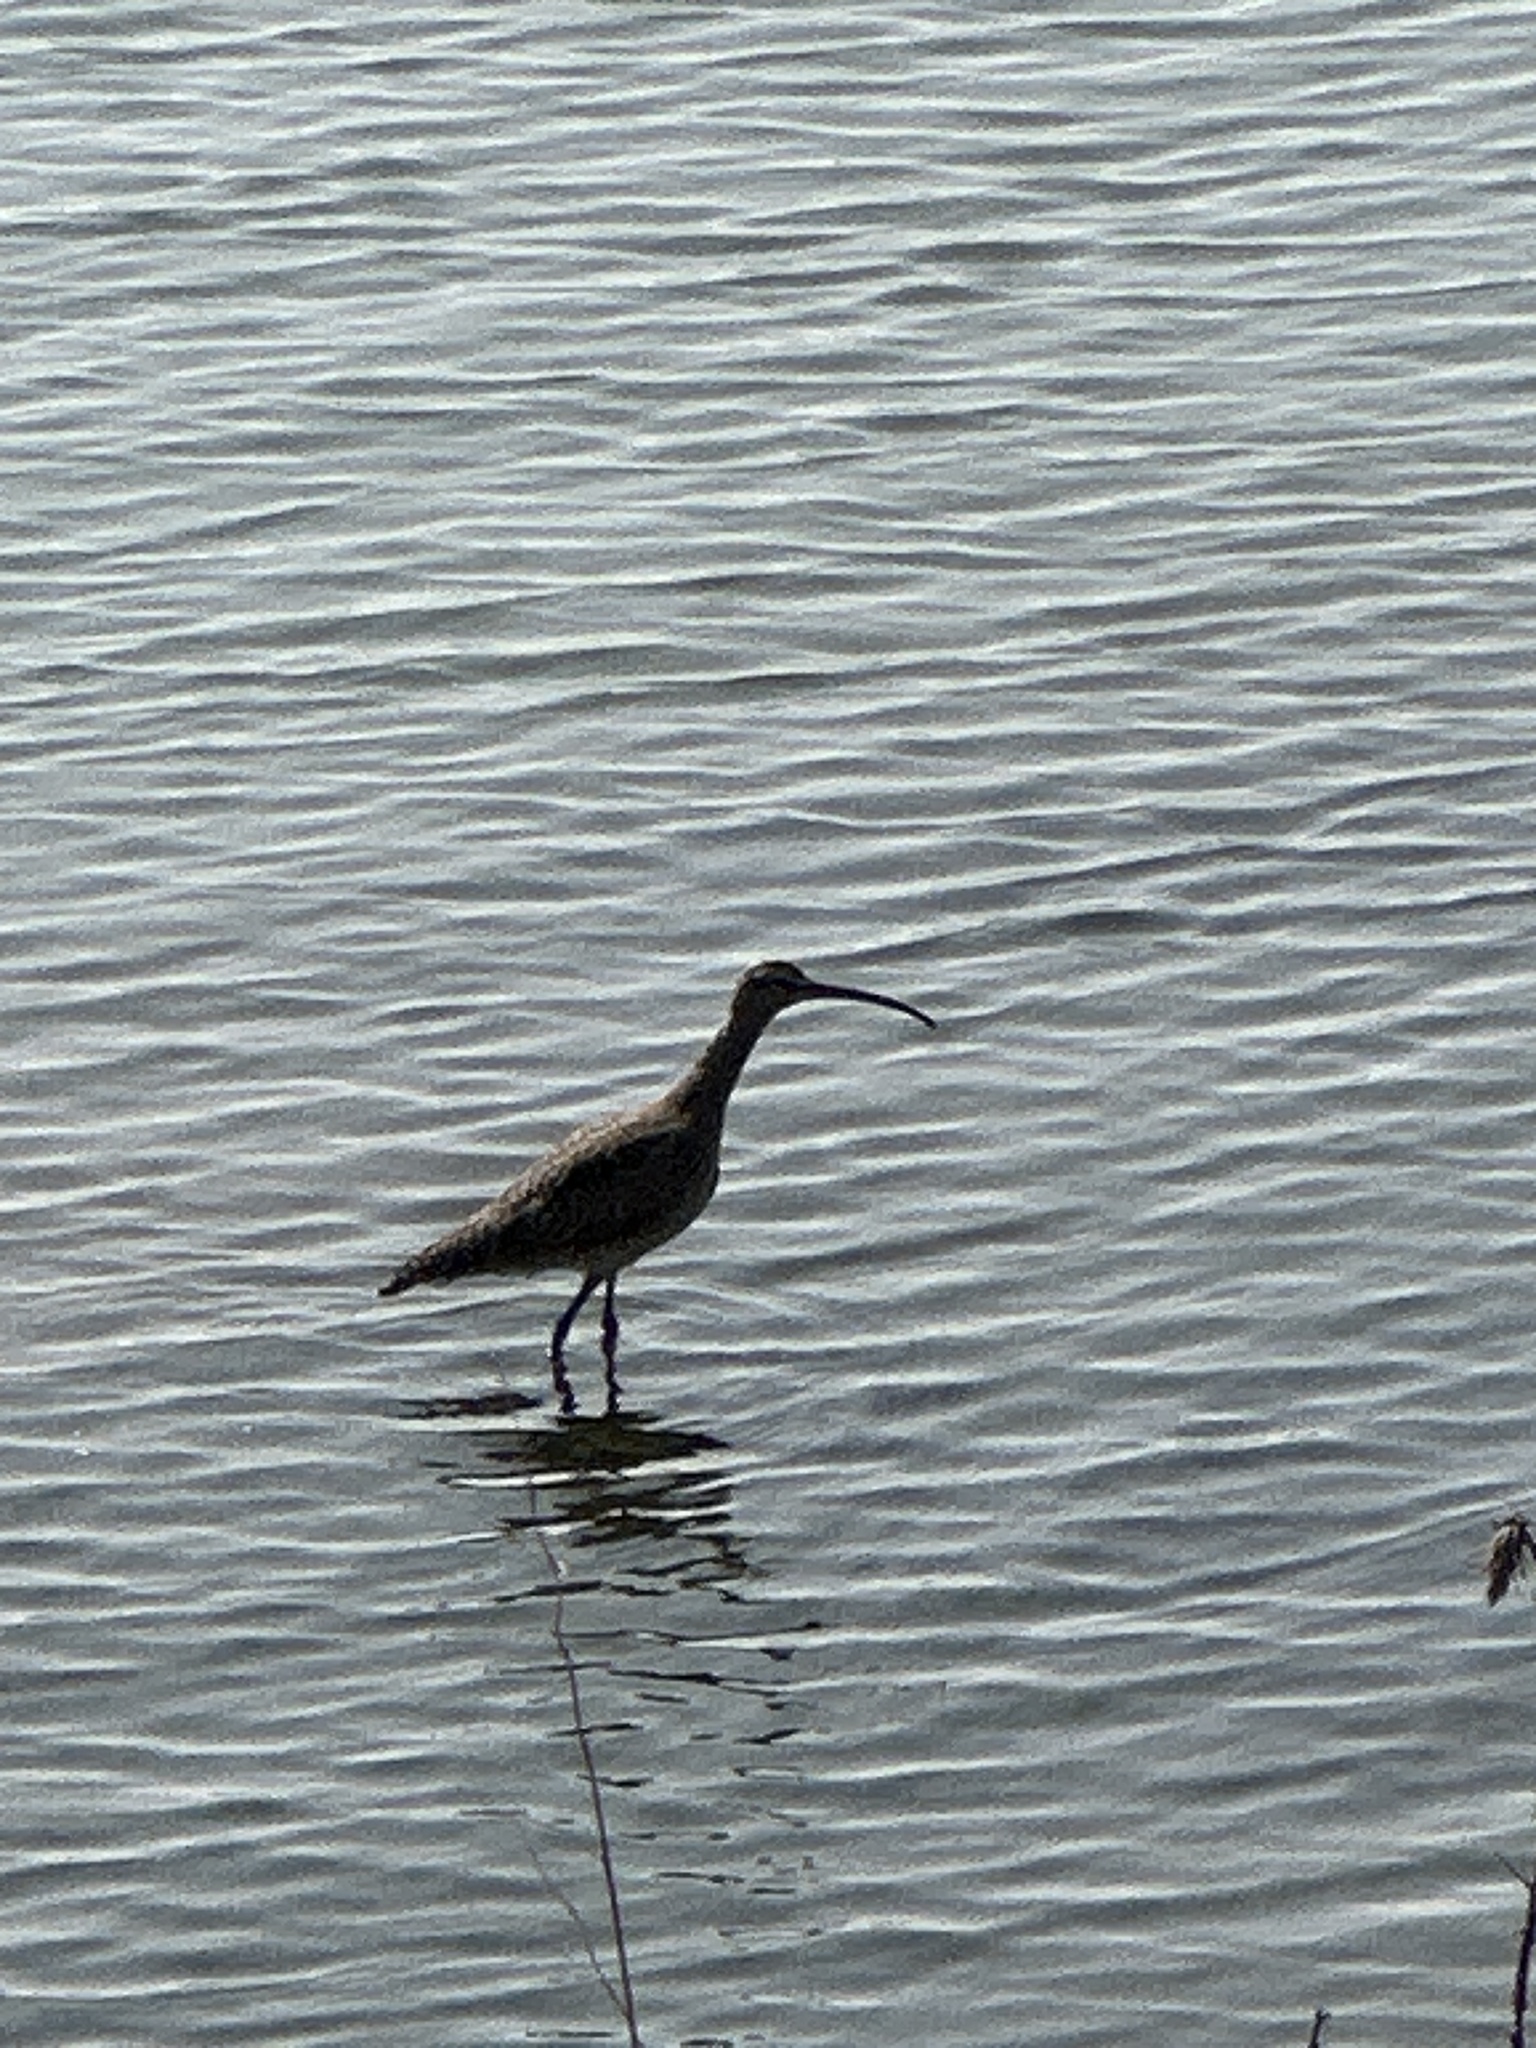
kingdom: Animalia
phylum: Chordata
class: Aves
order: Charadriiformes
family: Scolopacidae
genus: Numenius
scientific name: Numenius phaeopus
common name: Whimbrel
